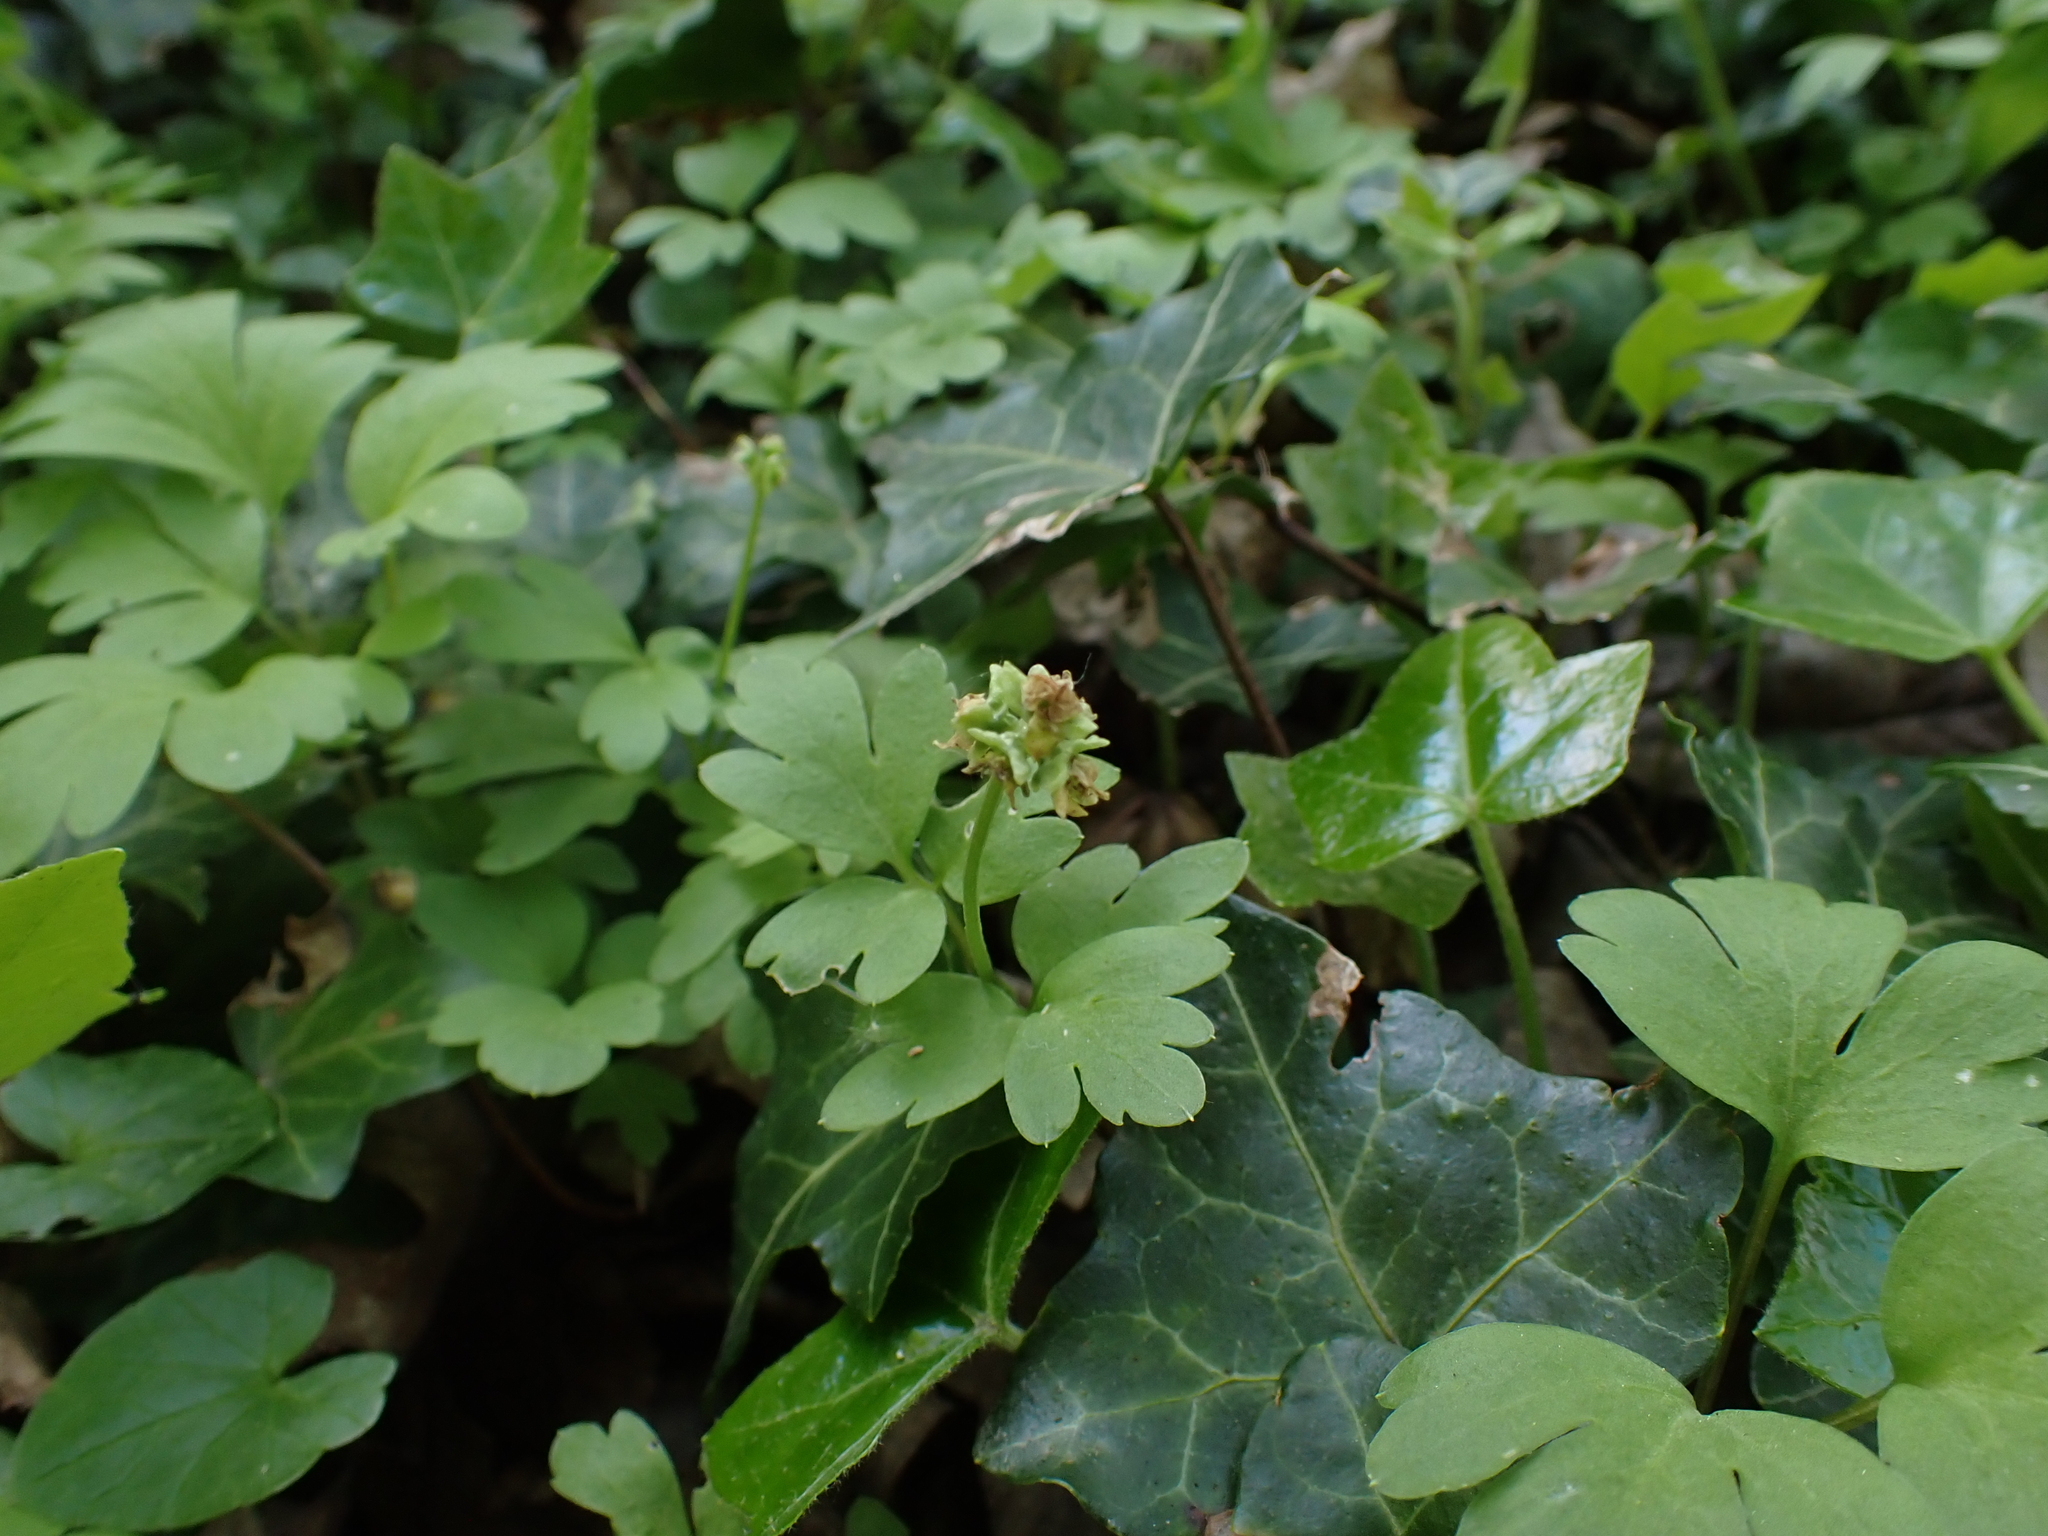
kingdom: Plantae
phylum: Tracheophyta
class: Magnoliopsida
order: Dipsacales
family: Viburnaceae
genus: Adoxa
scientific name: Adoxa moschatellina
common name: Moschatel
